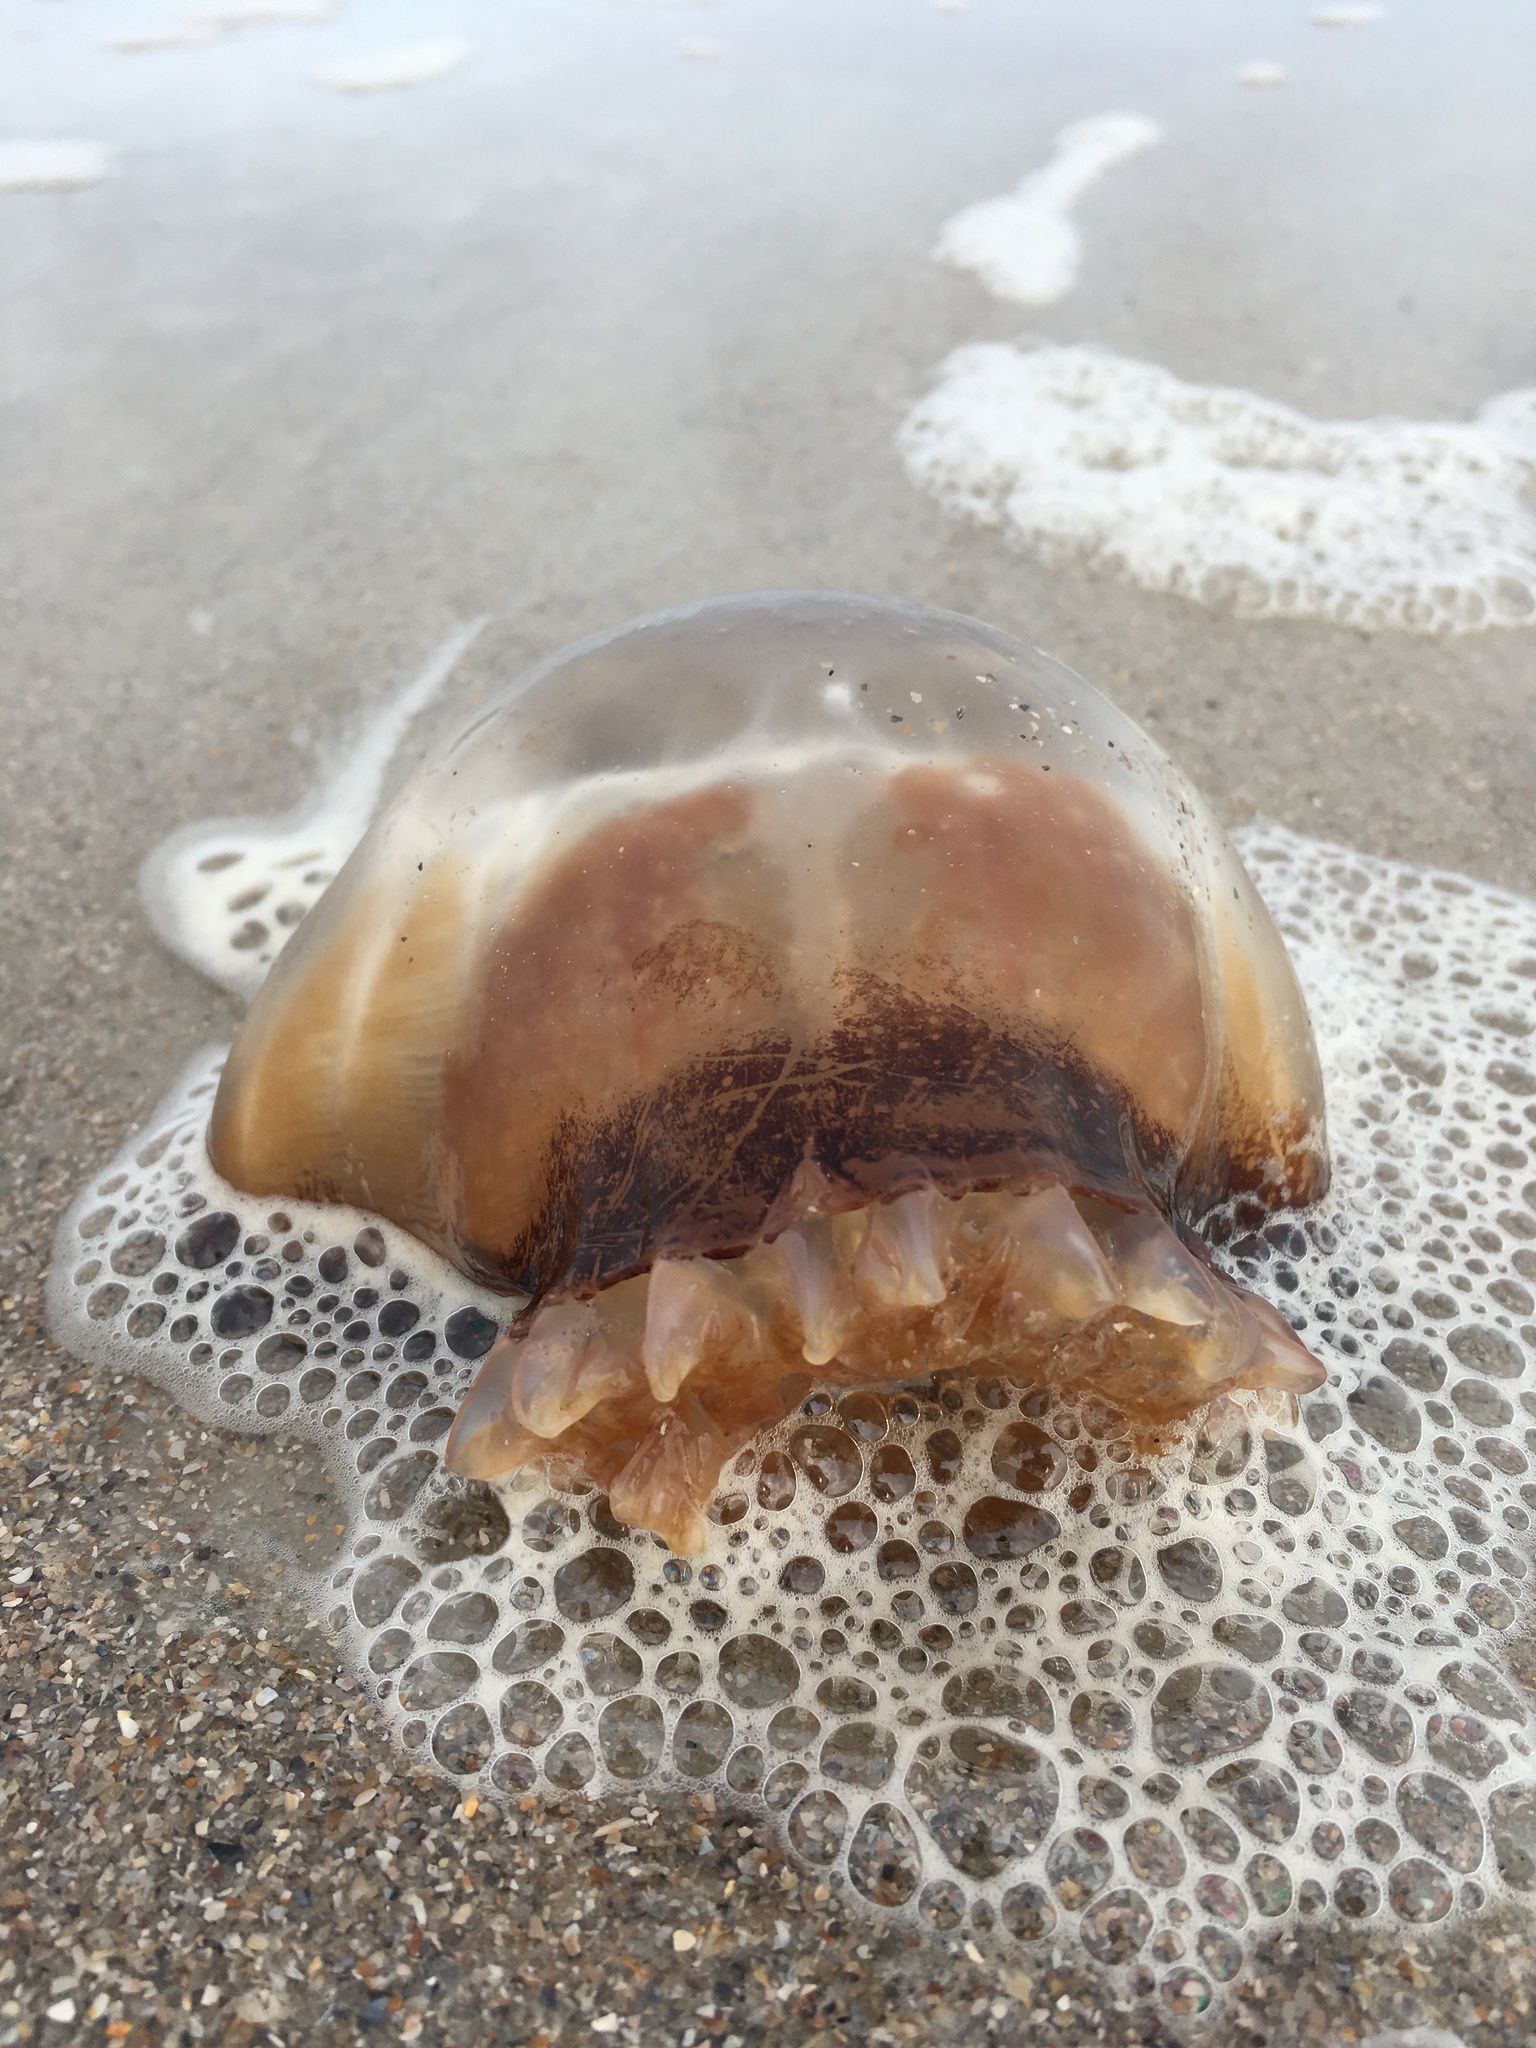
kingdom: Animalia
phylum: Cnidaria
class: Scyphozoa
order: Rhizostomeae
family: Stomolophidae
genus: Stomolophus
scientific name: Stomolophus meleagris
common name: Cabbagehead
